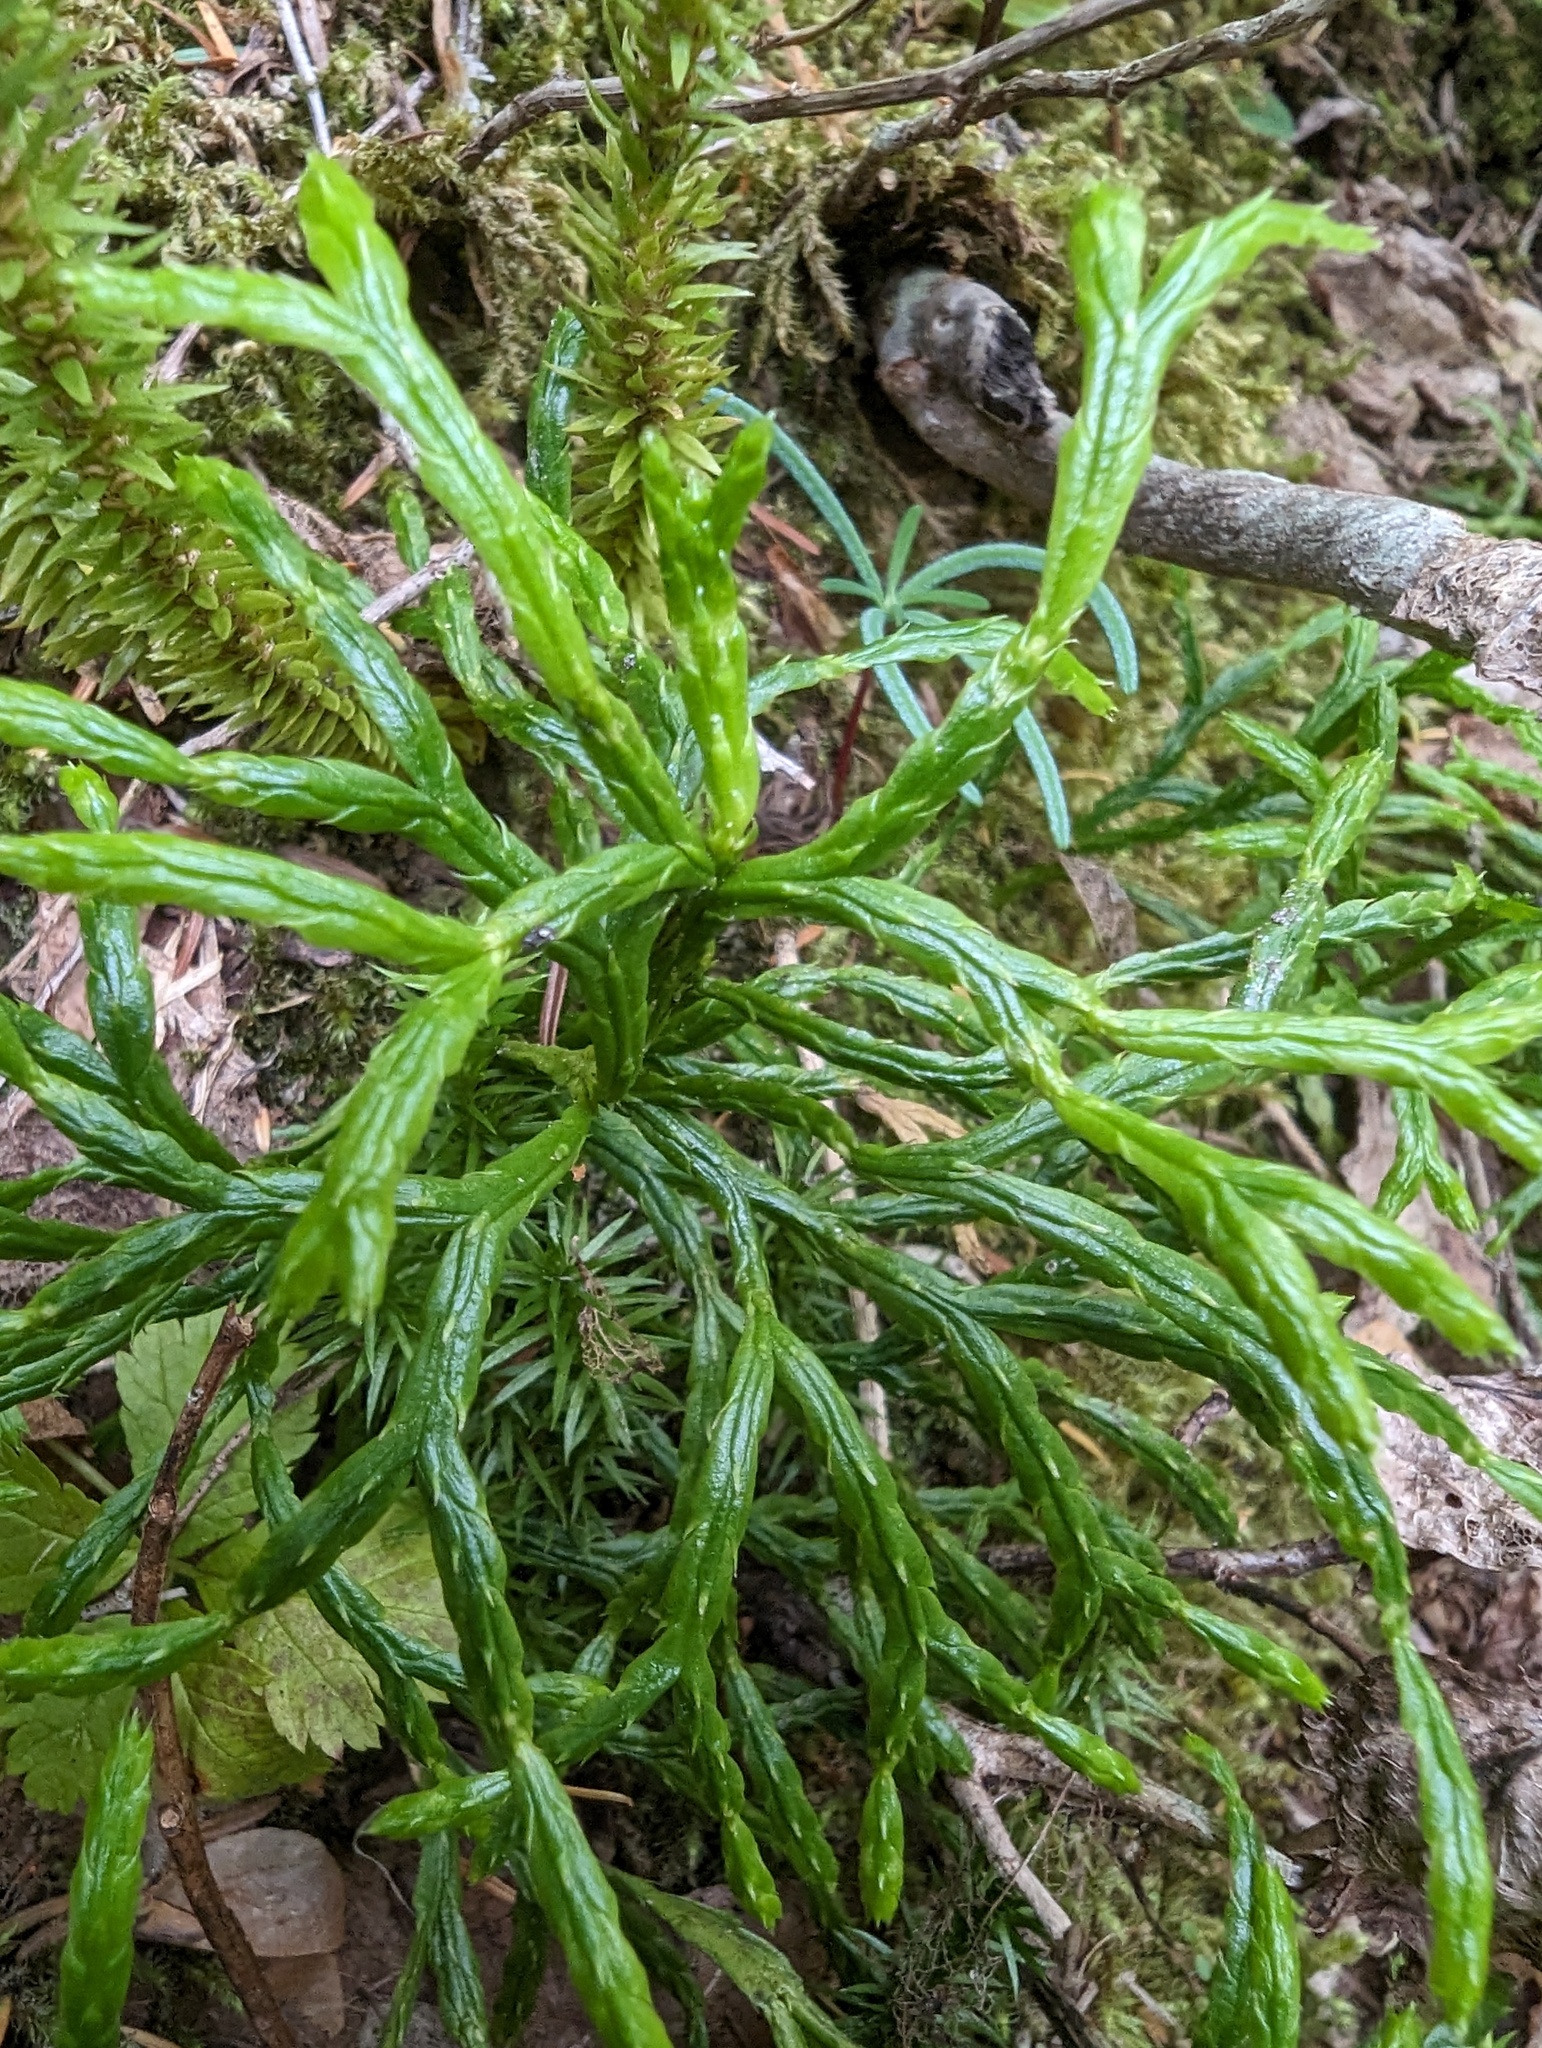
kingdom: Plantae
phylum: Tracheophyta
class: Lycopodiopsida
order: Lycopodiales
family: Lycopodiaceae
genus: Diphasiastrum
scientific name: Diphasiastrum complanatum
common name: Northern running-pine
